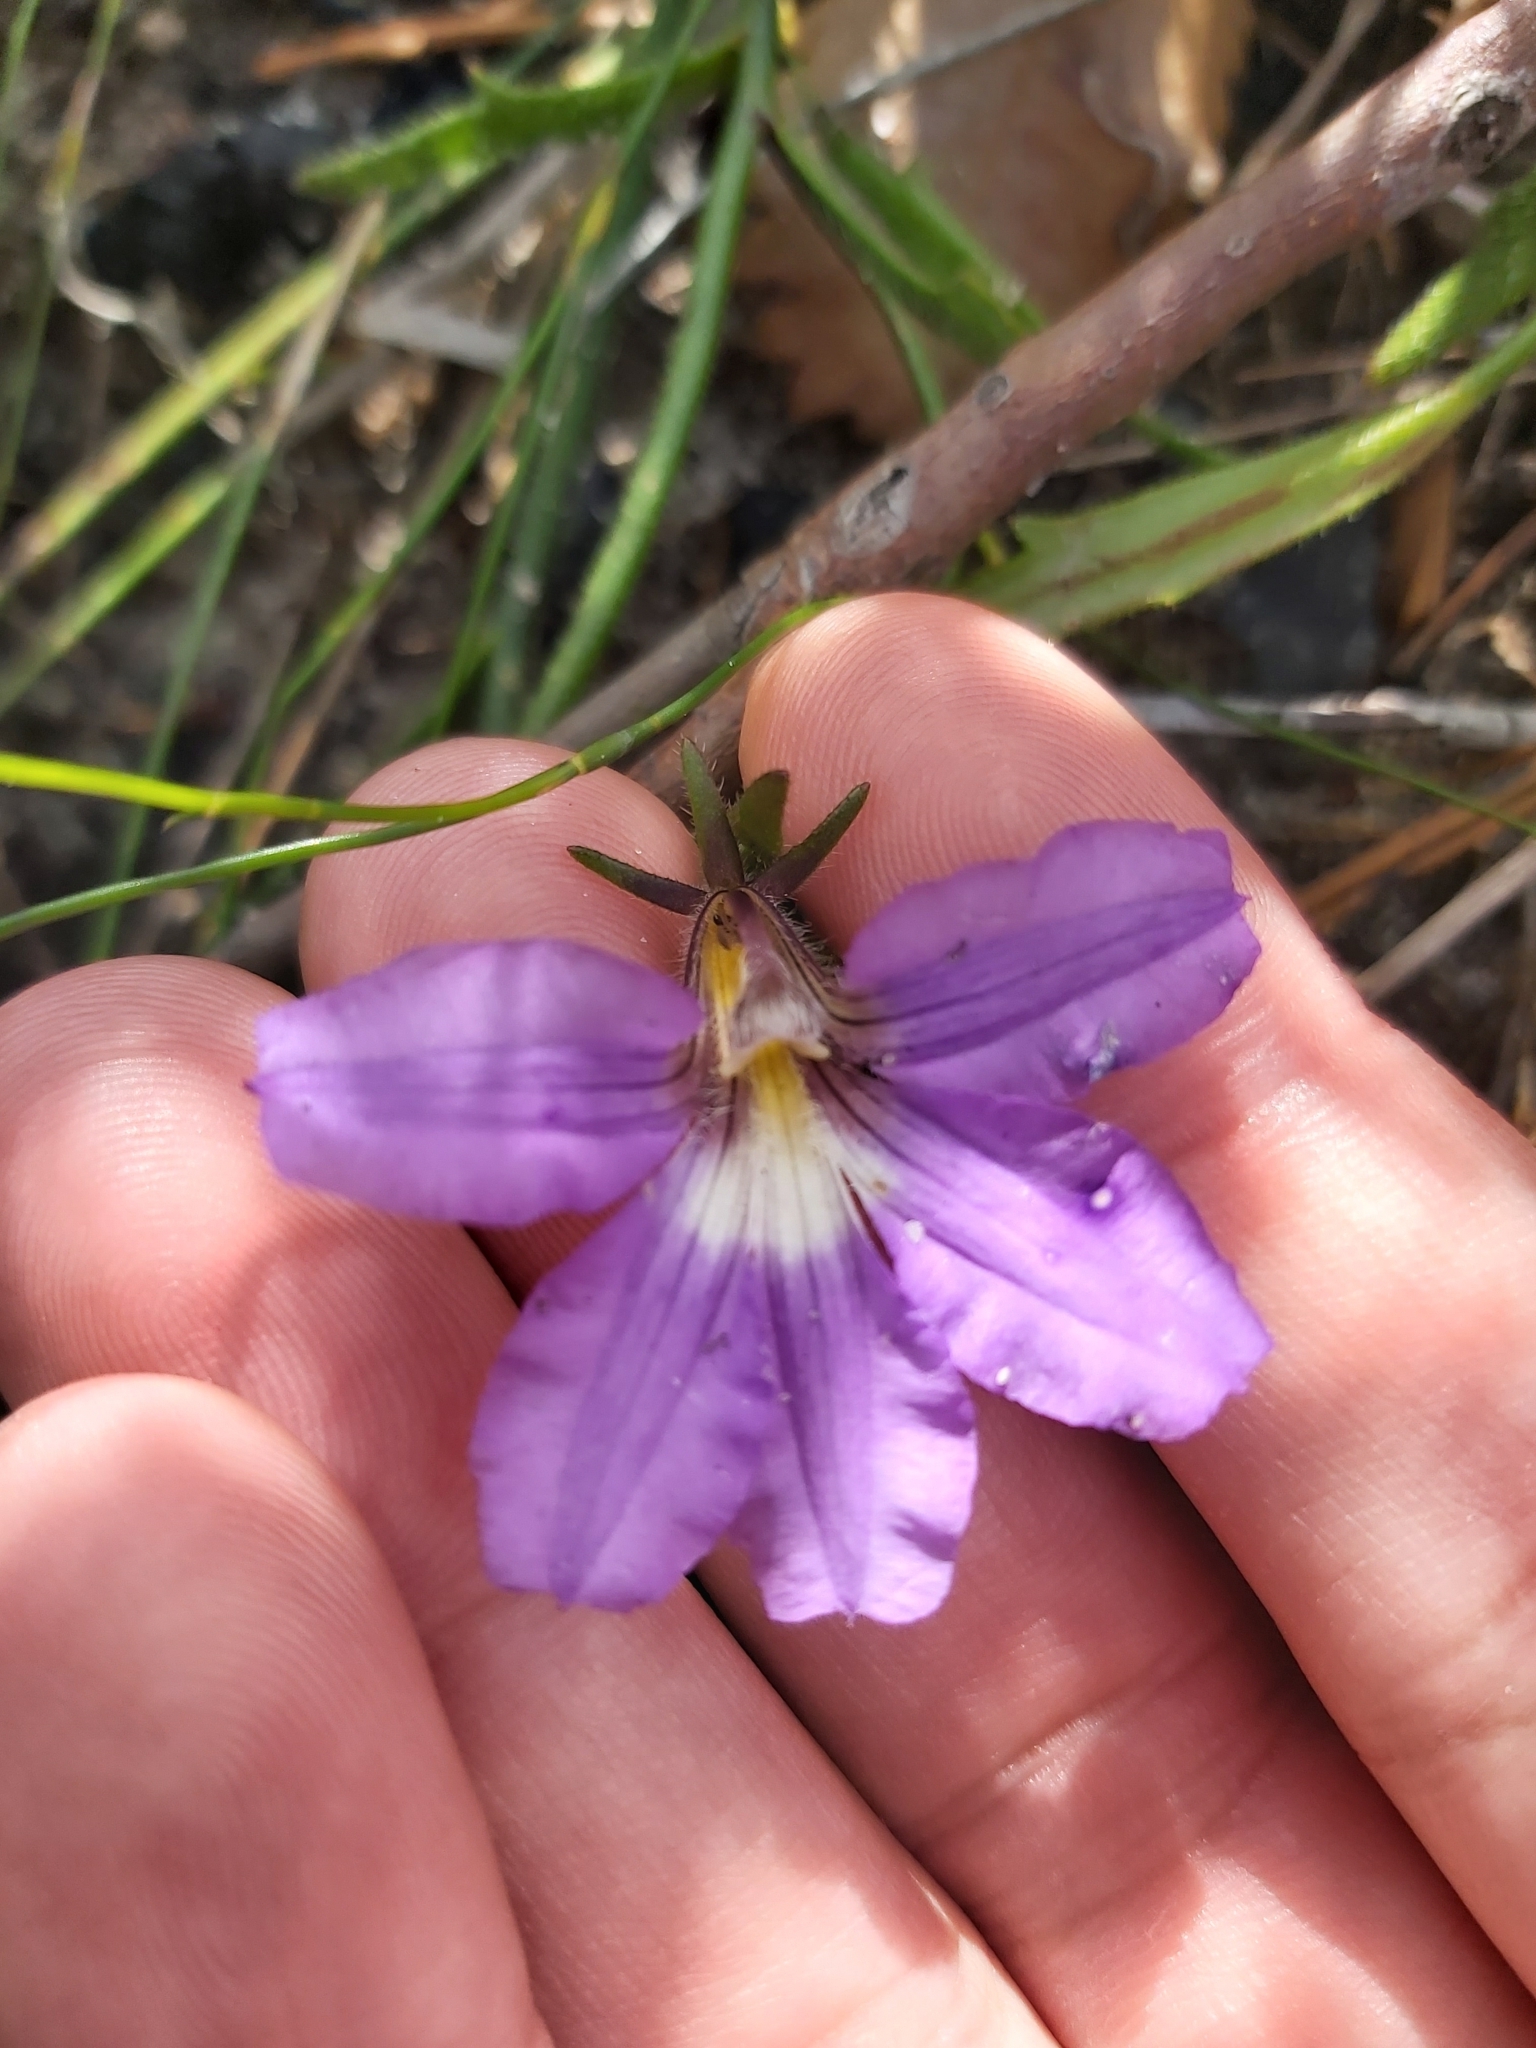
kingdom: Plantae
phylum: Tracheophyta
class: Magnoliopsida
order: Asterales
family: Goodeniaceae
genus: Scaevola
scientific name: Scaevola ramosissima
